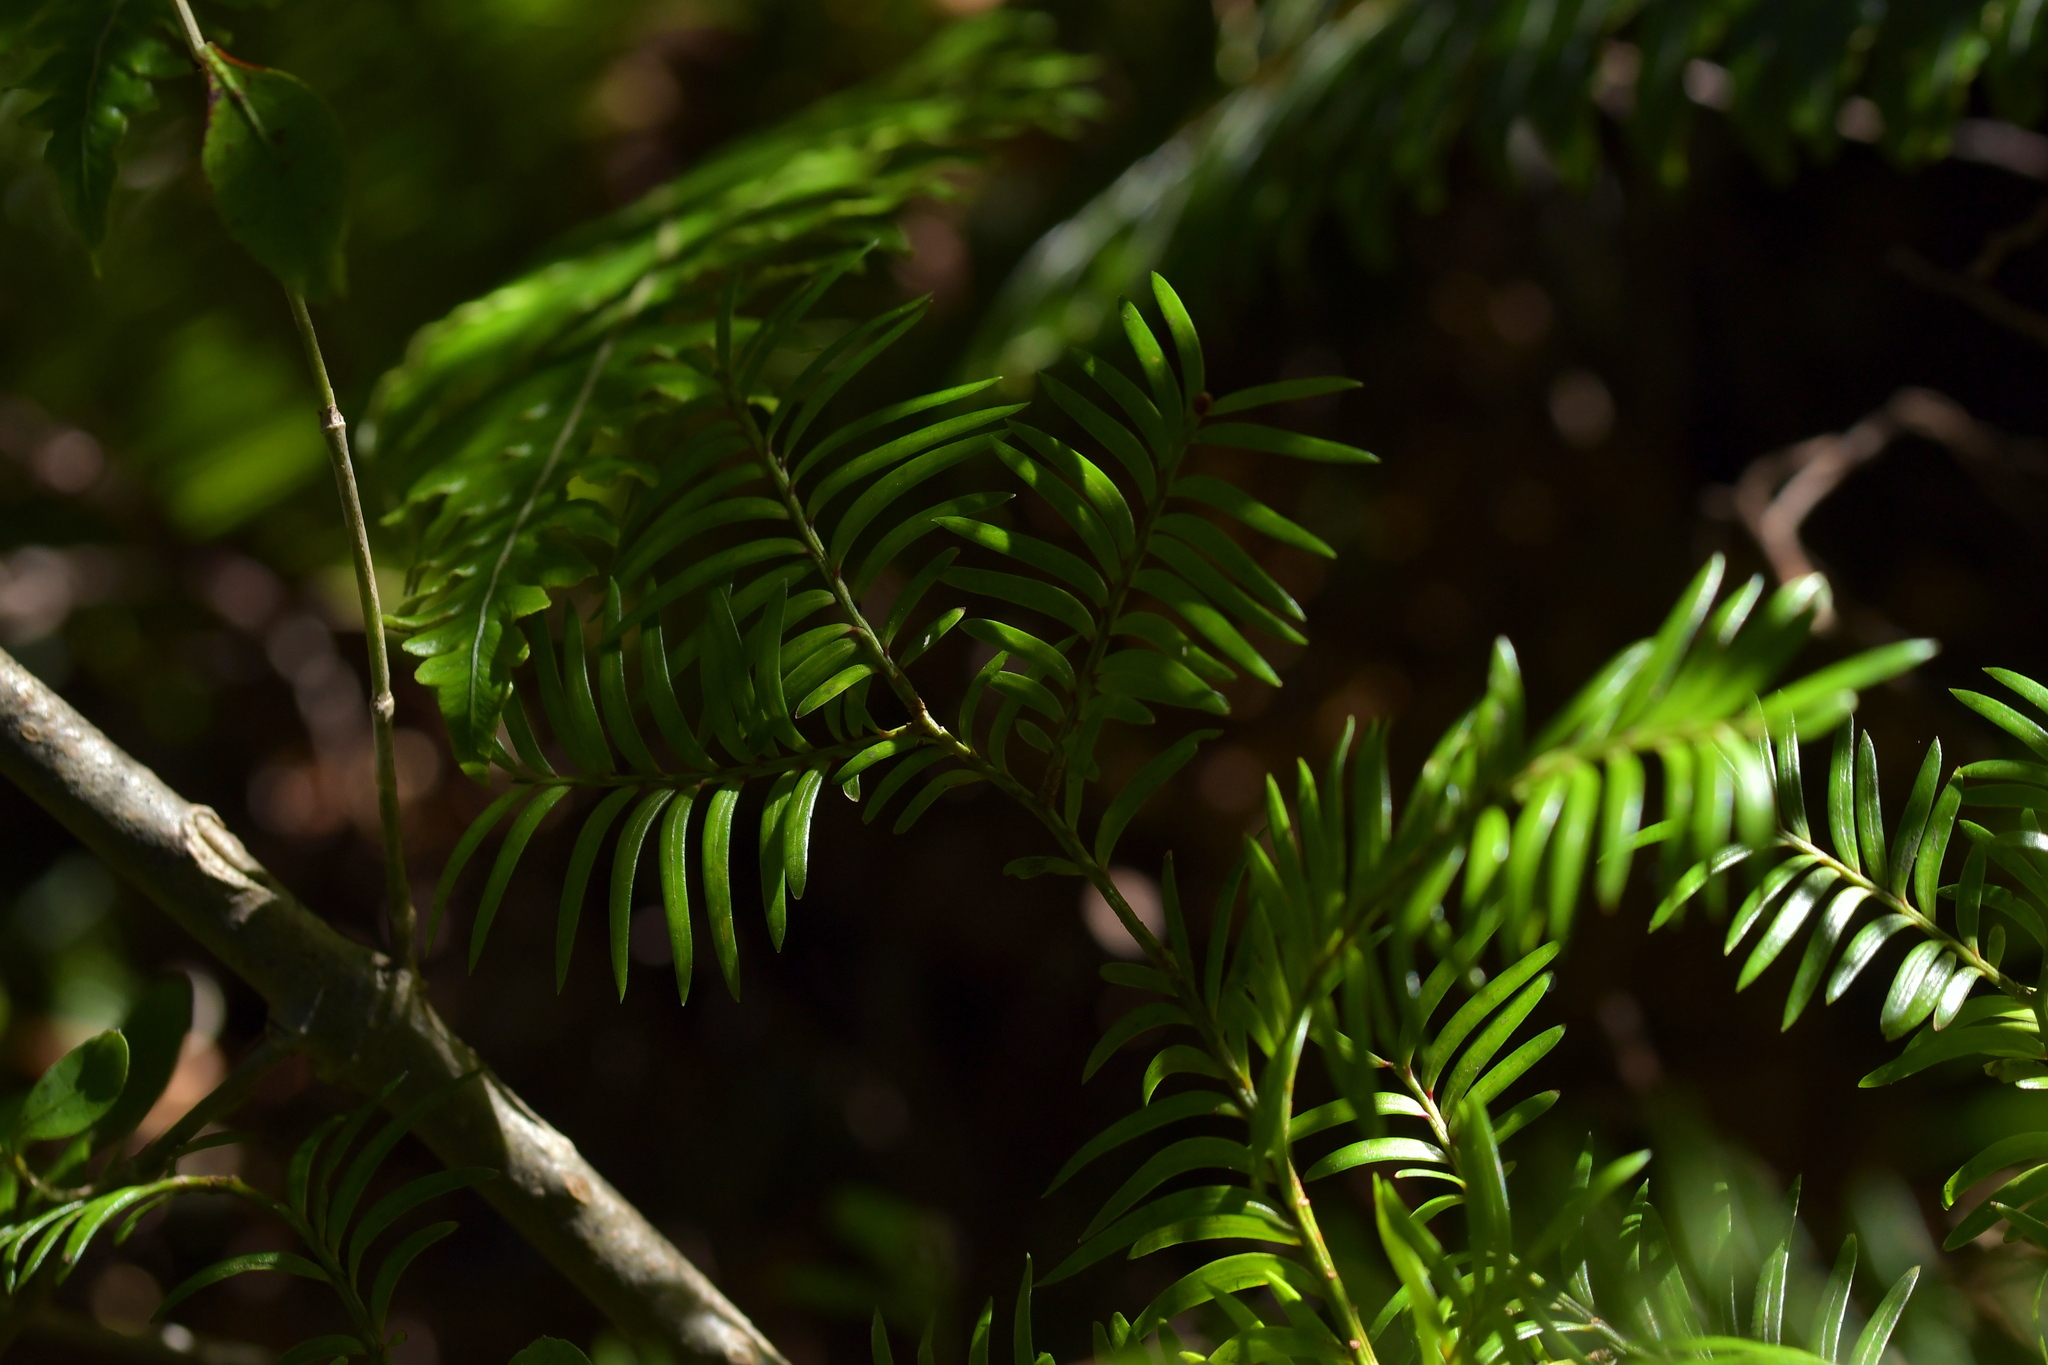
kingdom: Plantae
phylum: Tracheophyta
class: Pinopsida
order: Pinales
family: Podocarpaceae
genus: Prumnopitys
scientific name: Prumnopitys ferruginea
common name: Brown pine
